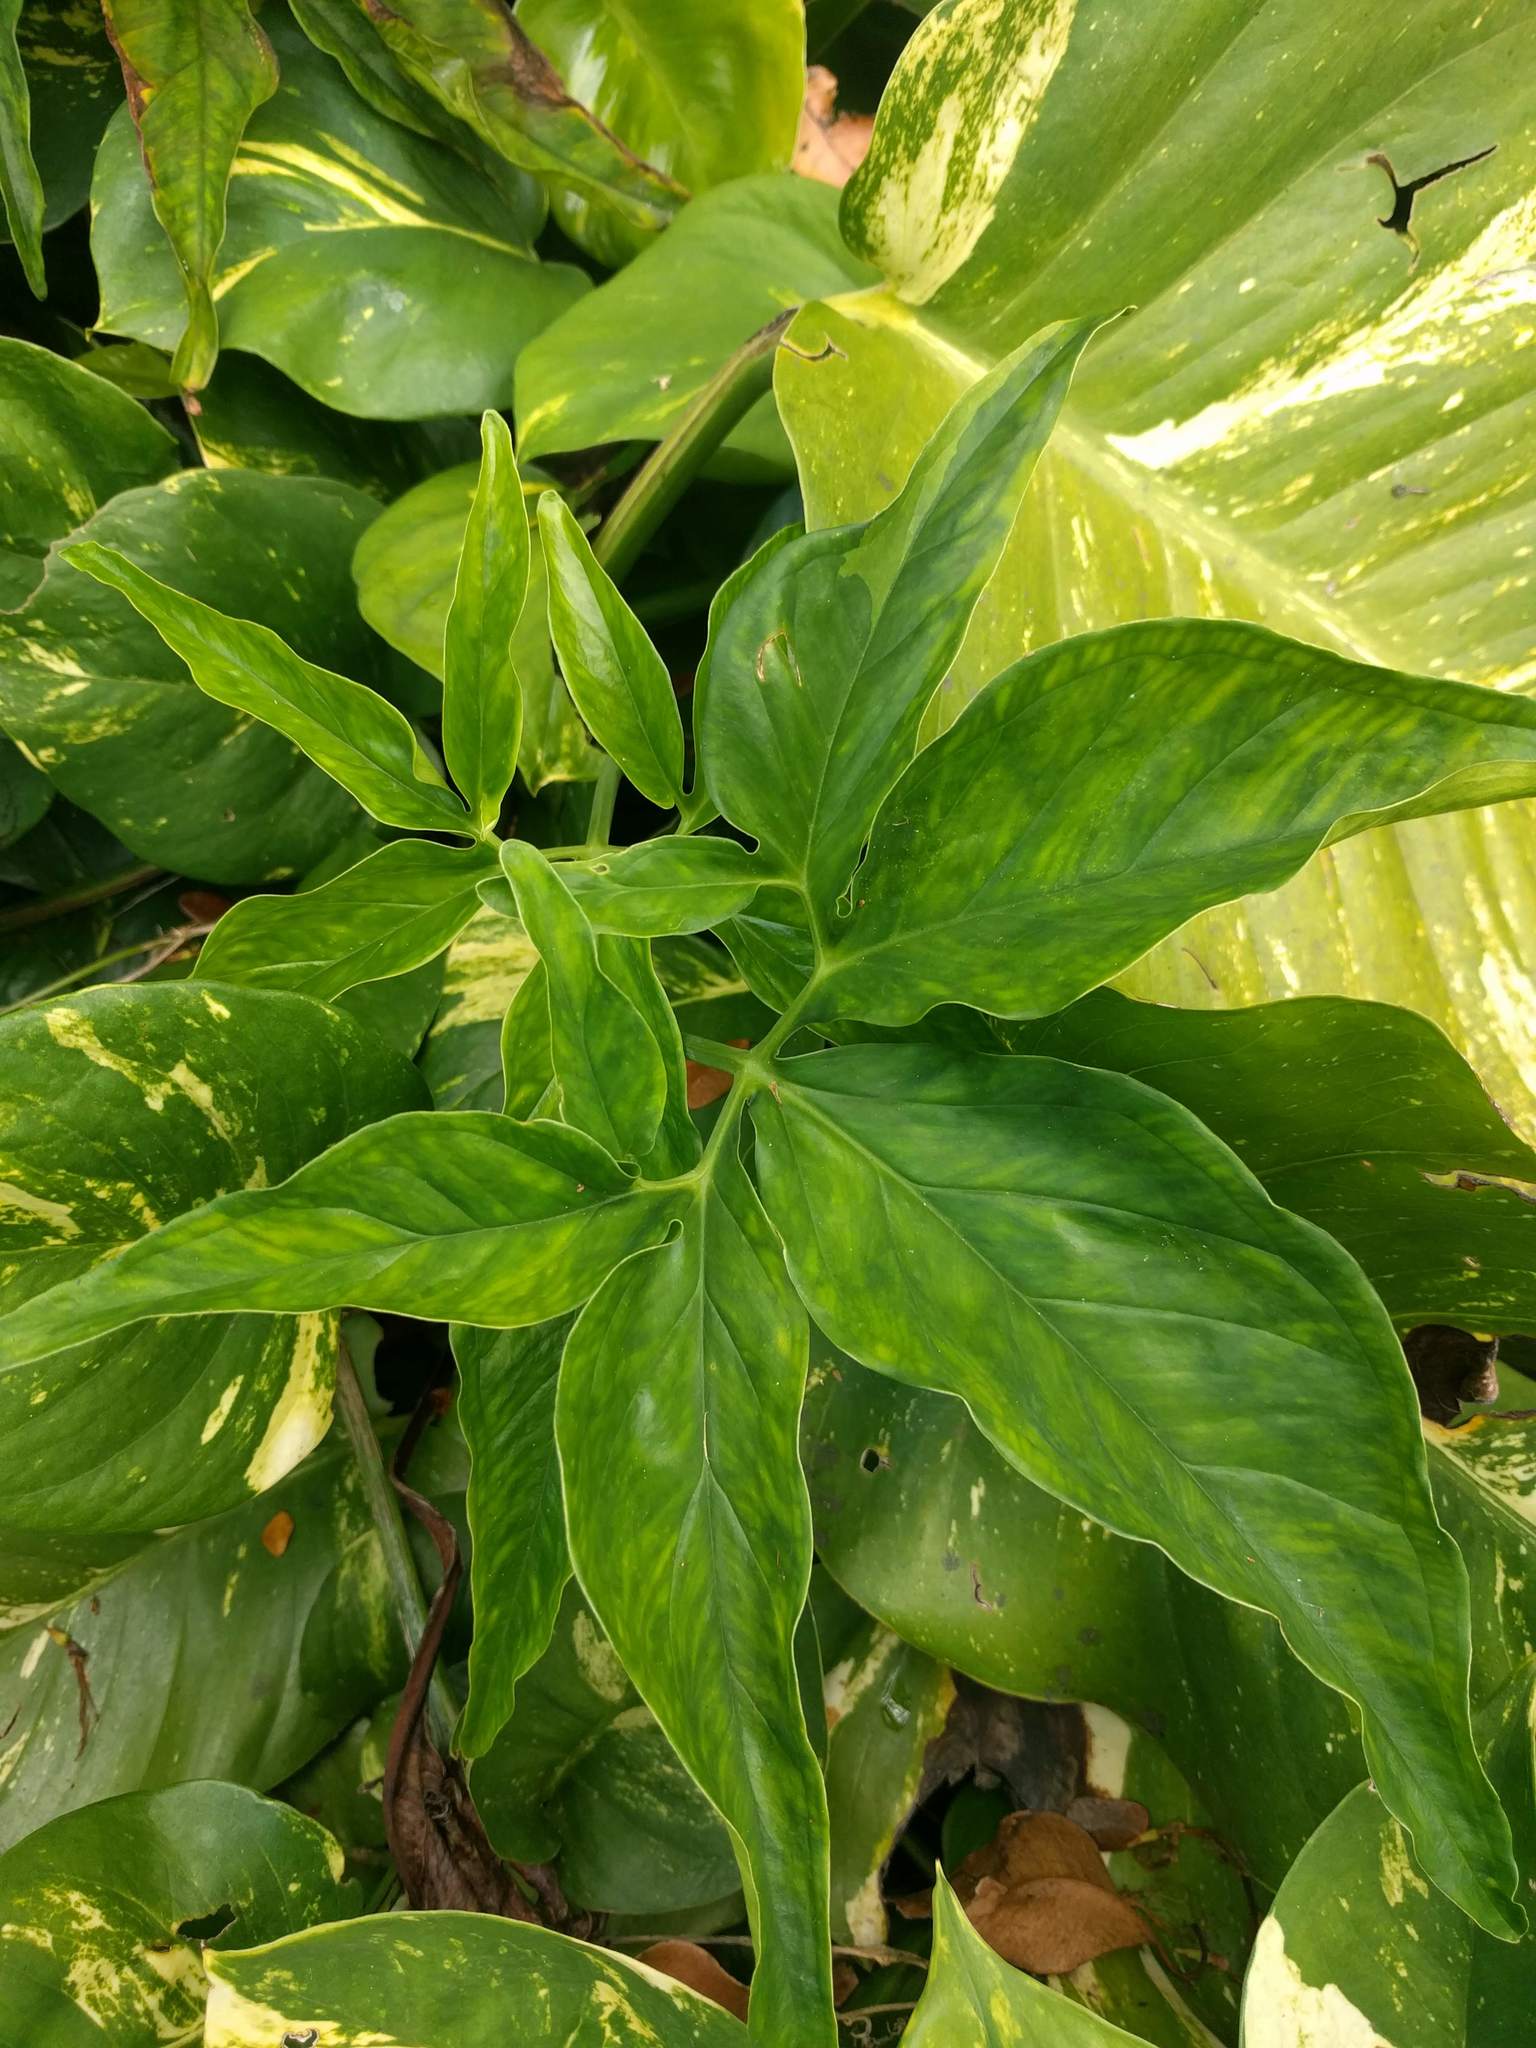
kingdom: Plantae
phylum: Tracheophyta
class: Liliopsida
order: Alismatales
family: Araceae
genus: Syngonium
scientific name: Syngonium podophyllum
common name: American evergreen
